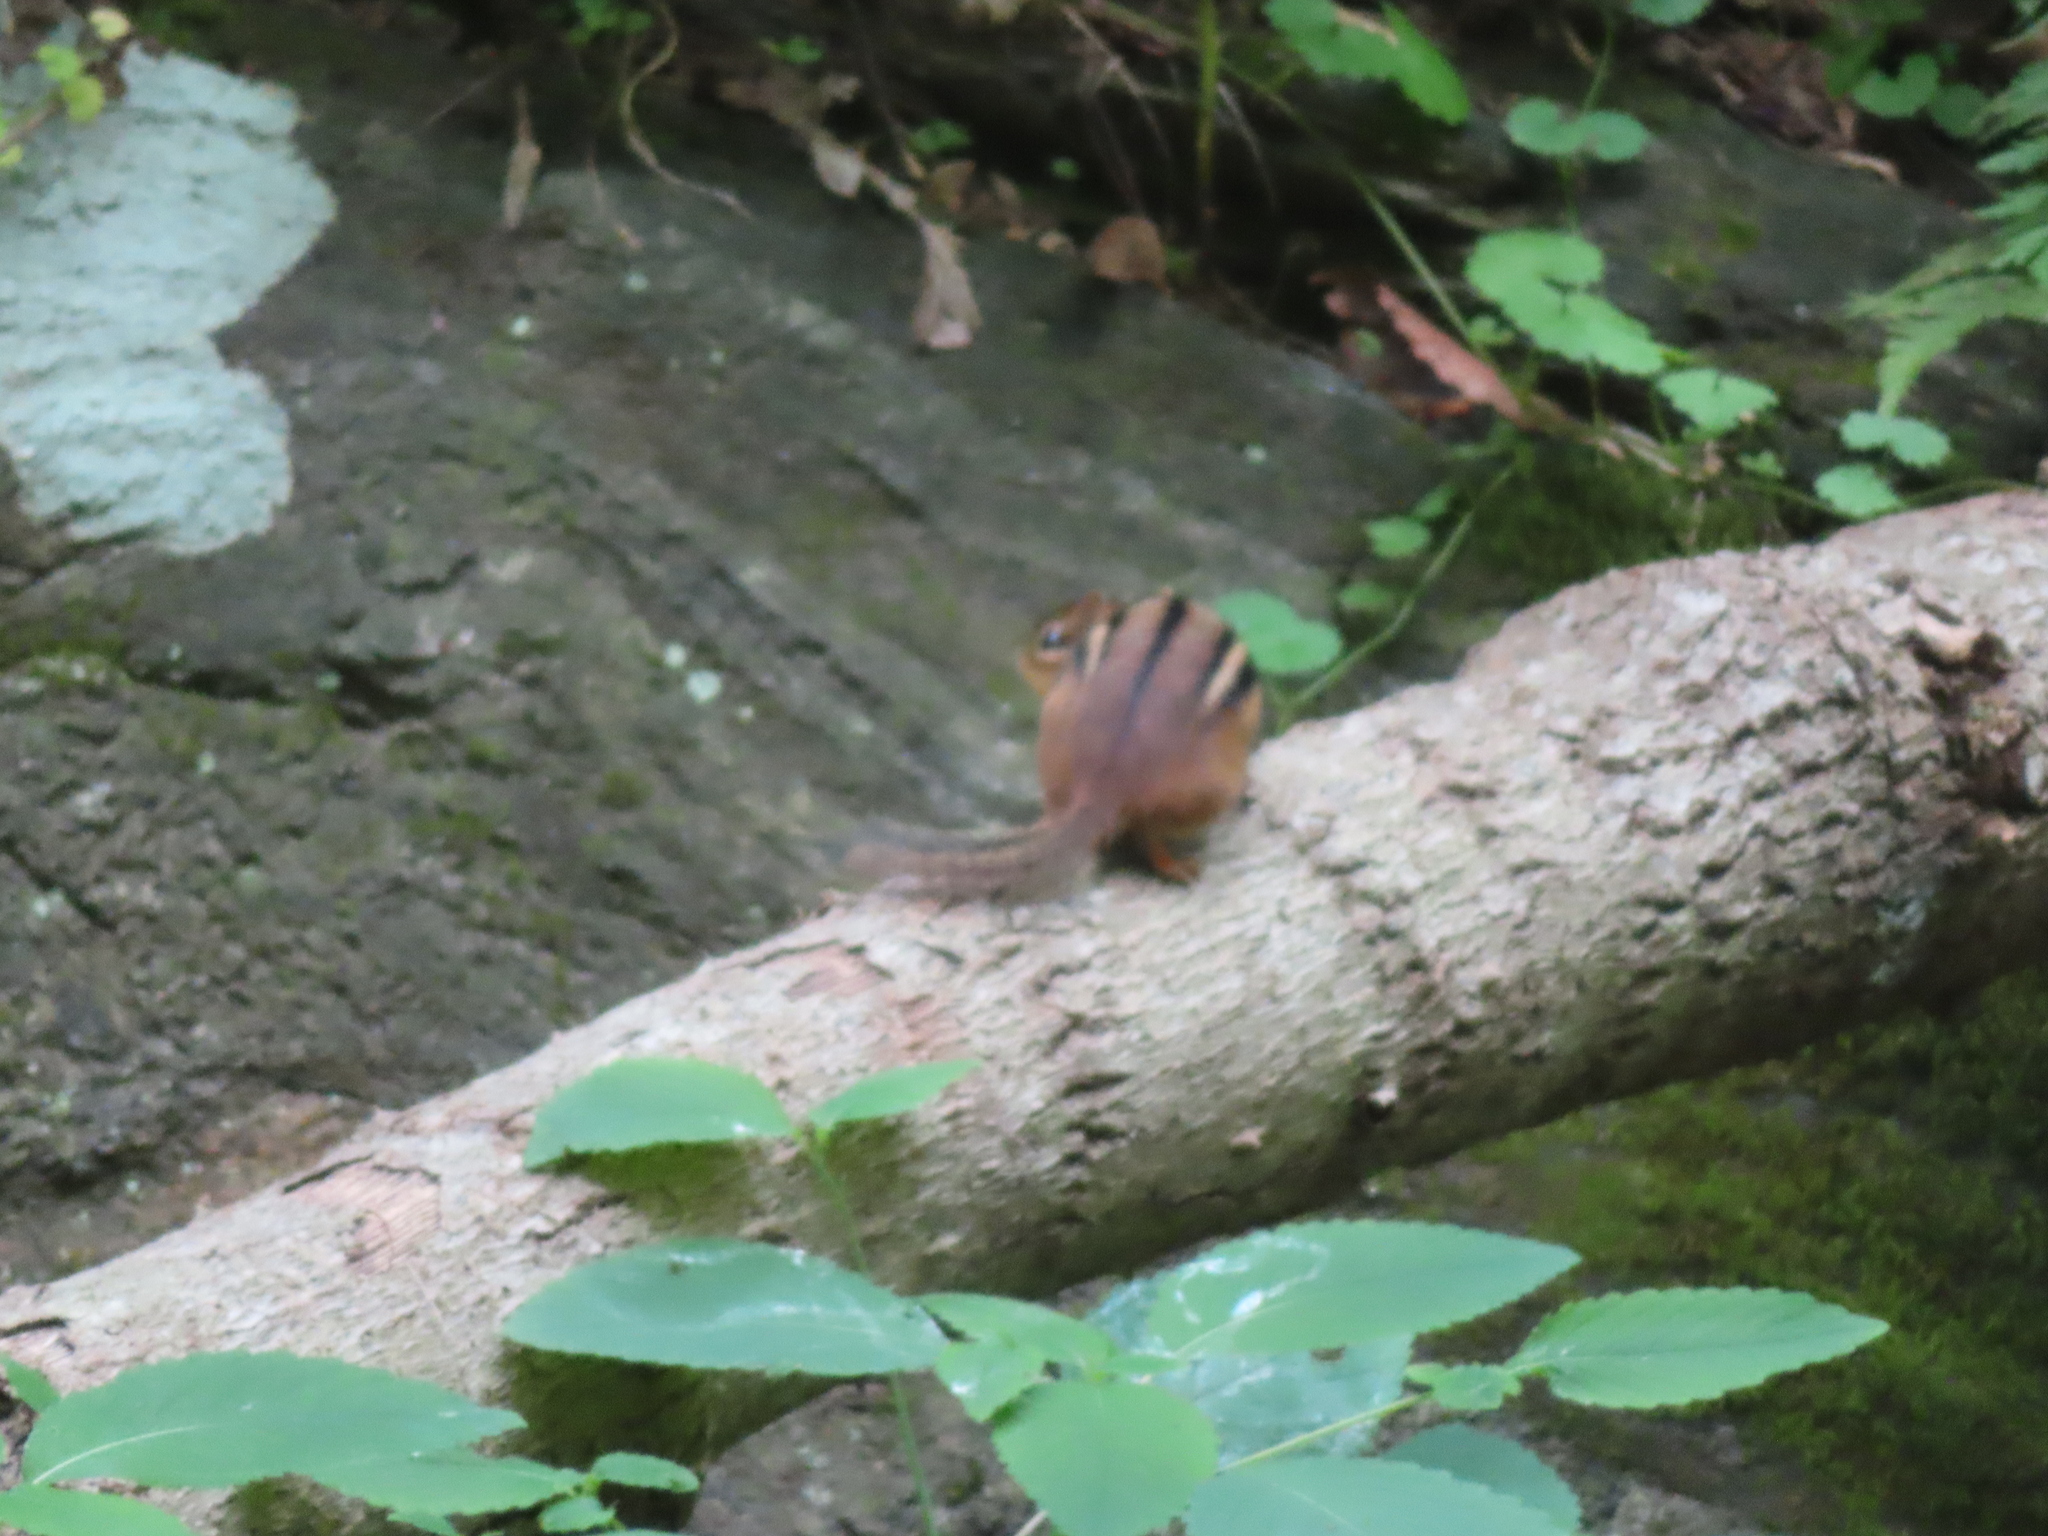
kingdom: Animalia
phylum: Chordata
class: Mammalia
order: Rodentia
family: Sciuridae
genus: Tamias
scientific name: Tamias striatus
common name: Eastern chipmunk
